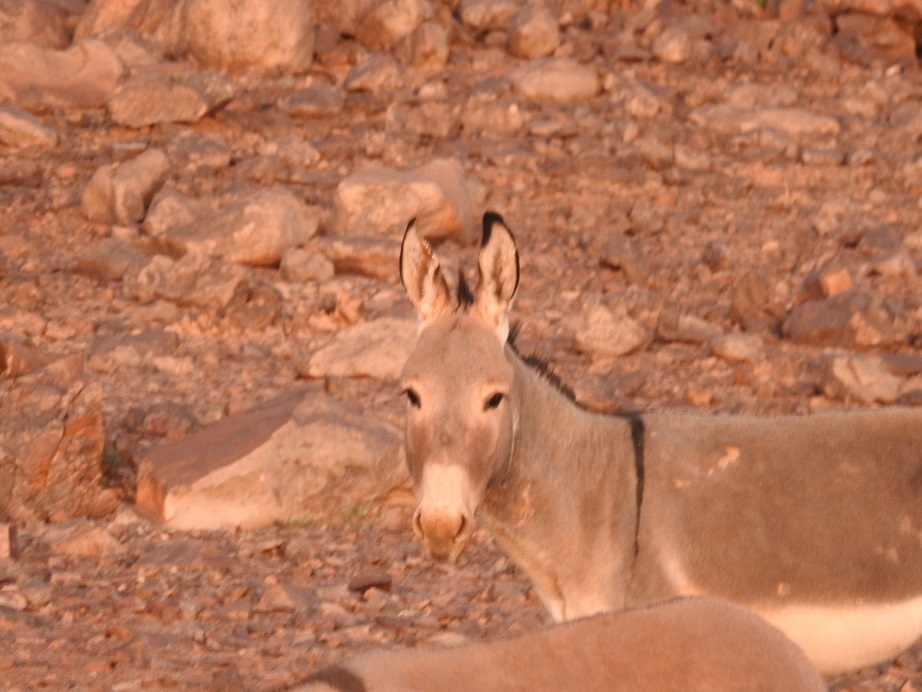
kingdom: Animalia
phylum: Chordata
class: Mammalia
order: Perissodactyla
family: Equidae
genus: Equus
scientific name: Equus asinus
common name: Ass
